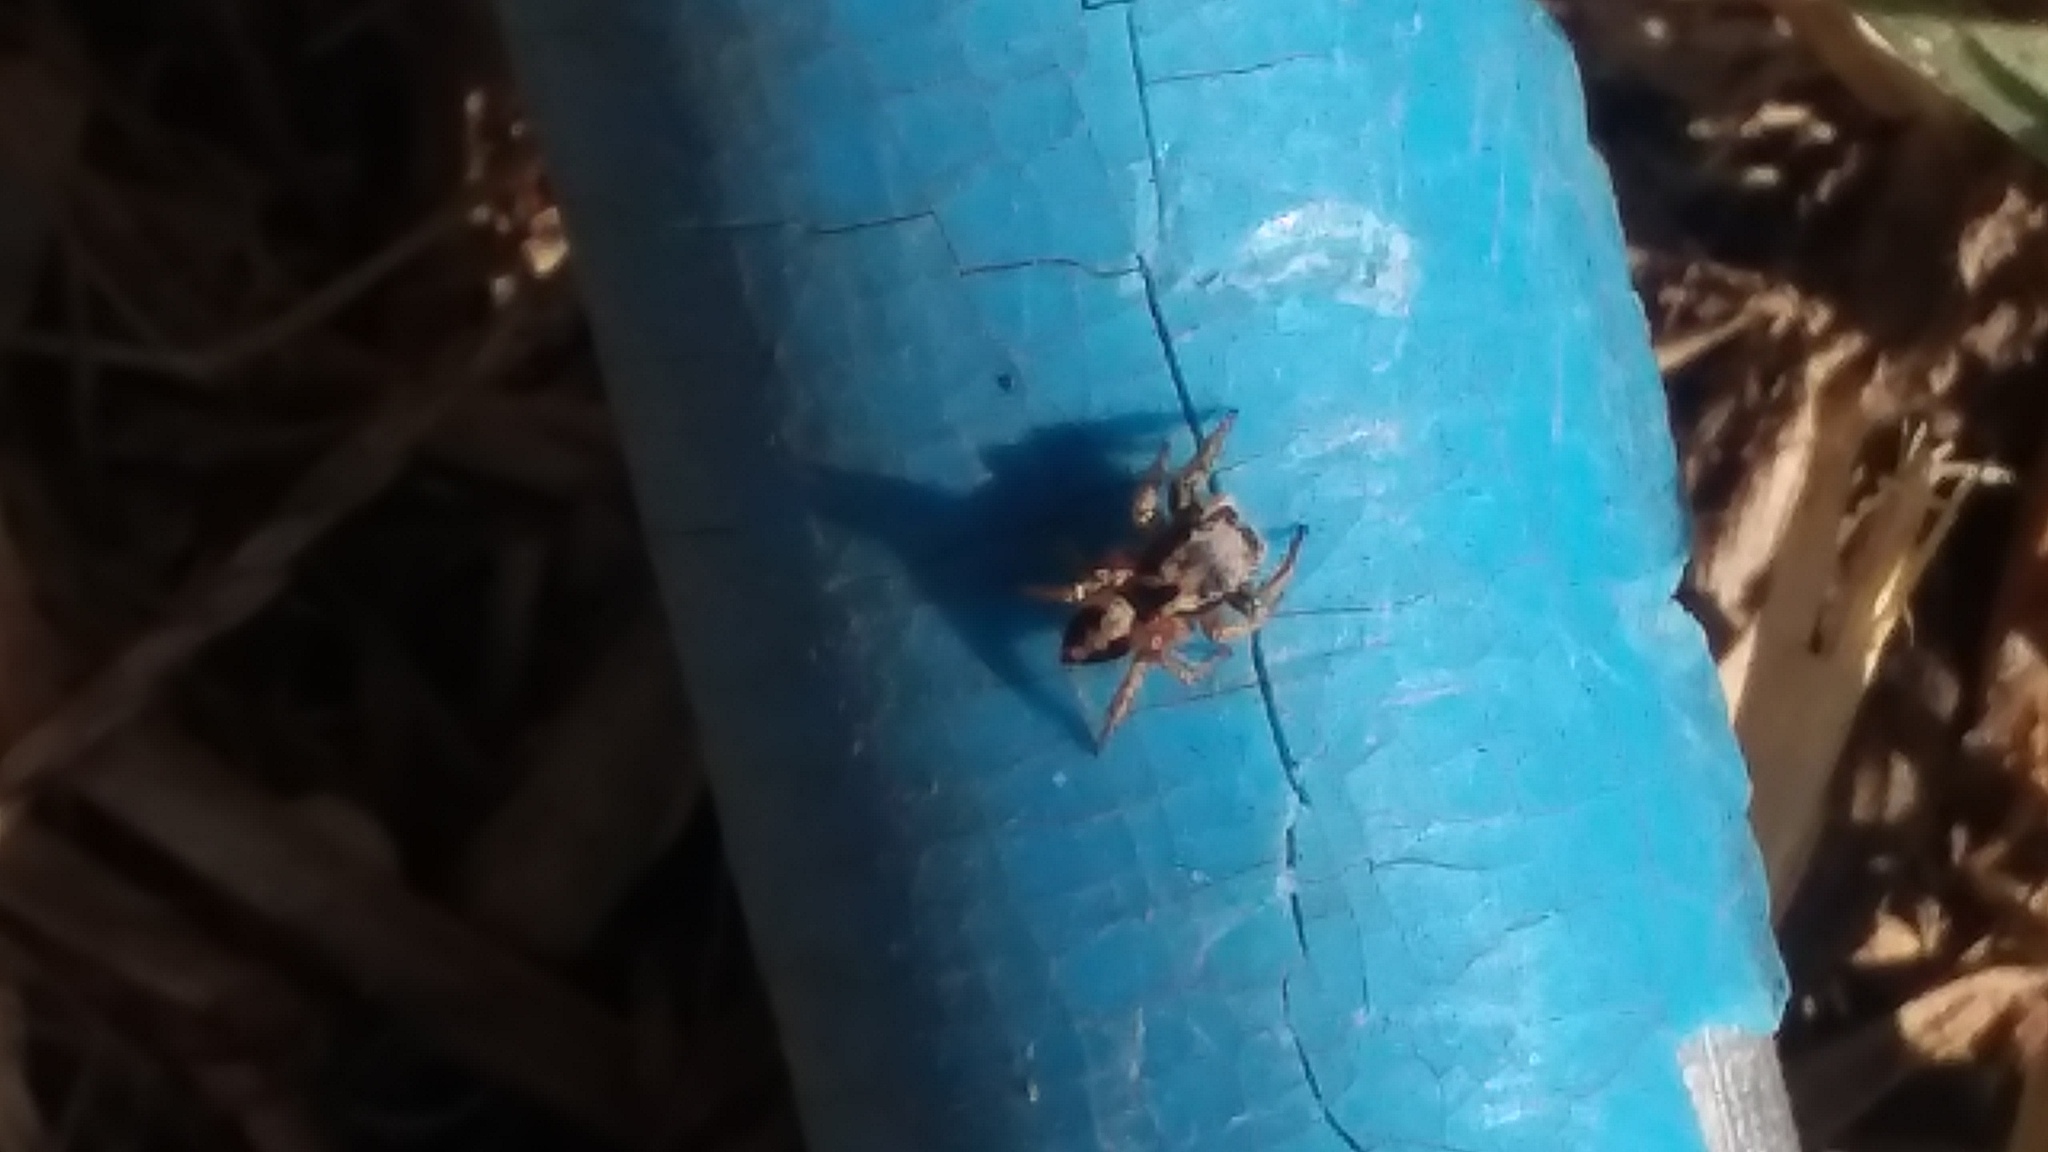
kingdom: Animalia
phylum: Arthropoda
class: Arachnida
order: Araneae
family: Salticidae
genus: Habronattus
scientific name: Habronattus pyrrithrix
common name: Jumping spider
